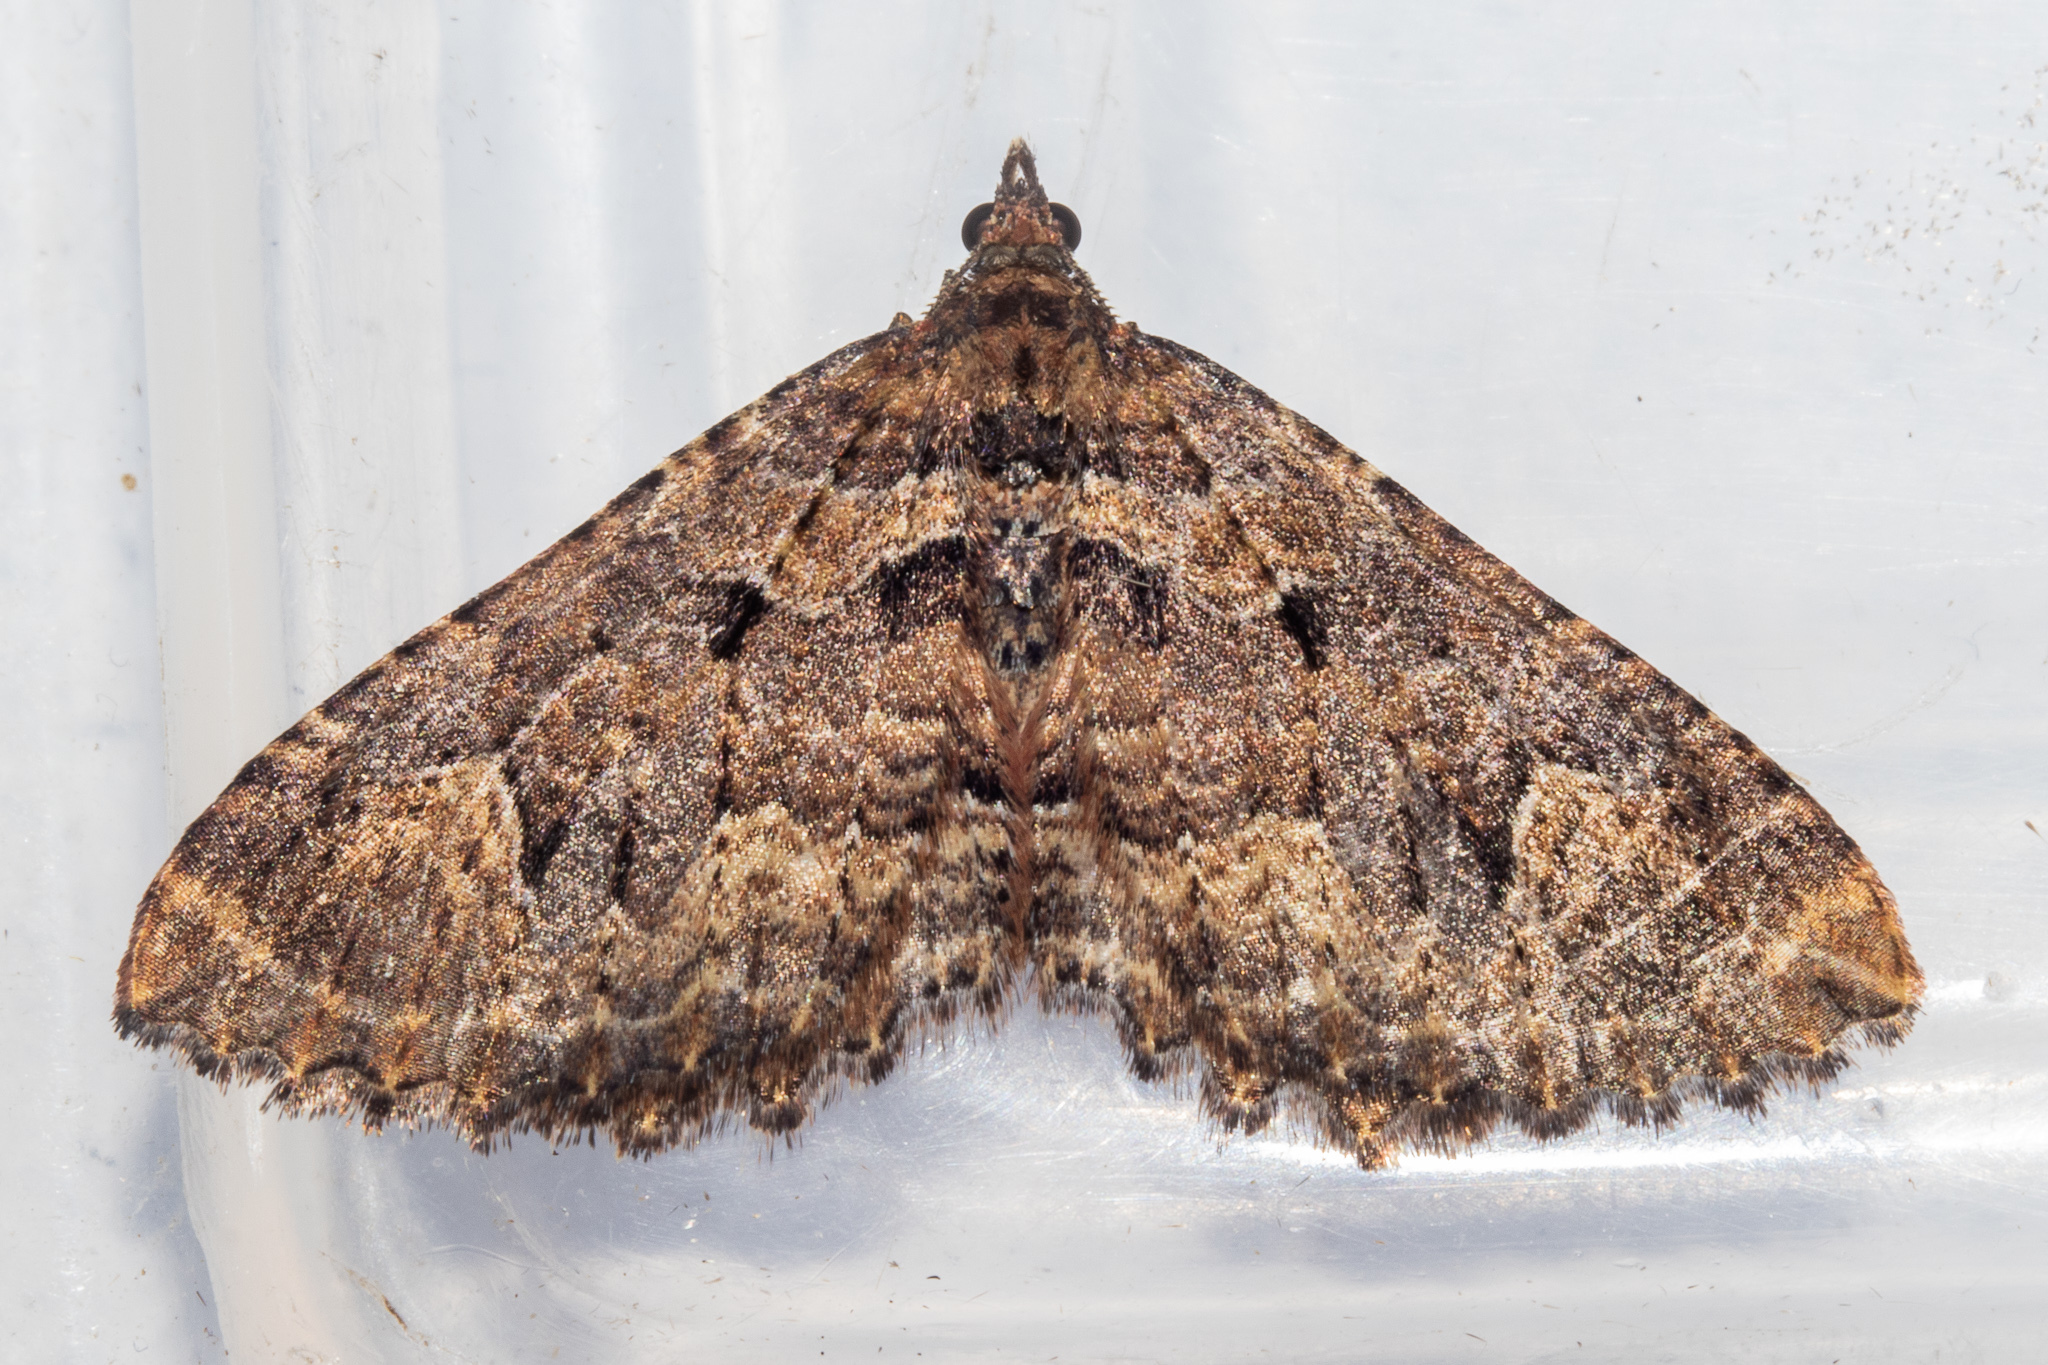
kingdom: Animalia
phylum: Arthropoda
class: Insecta
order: Lepidoptera
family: Geometridae
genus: Austrocidaria
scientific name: Austrocidaria cedrinodes
